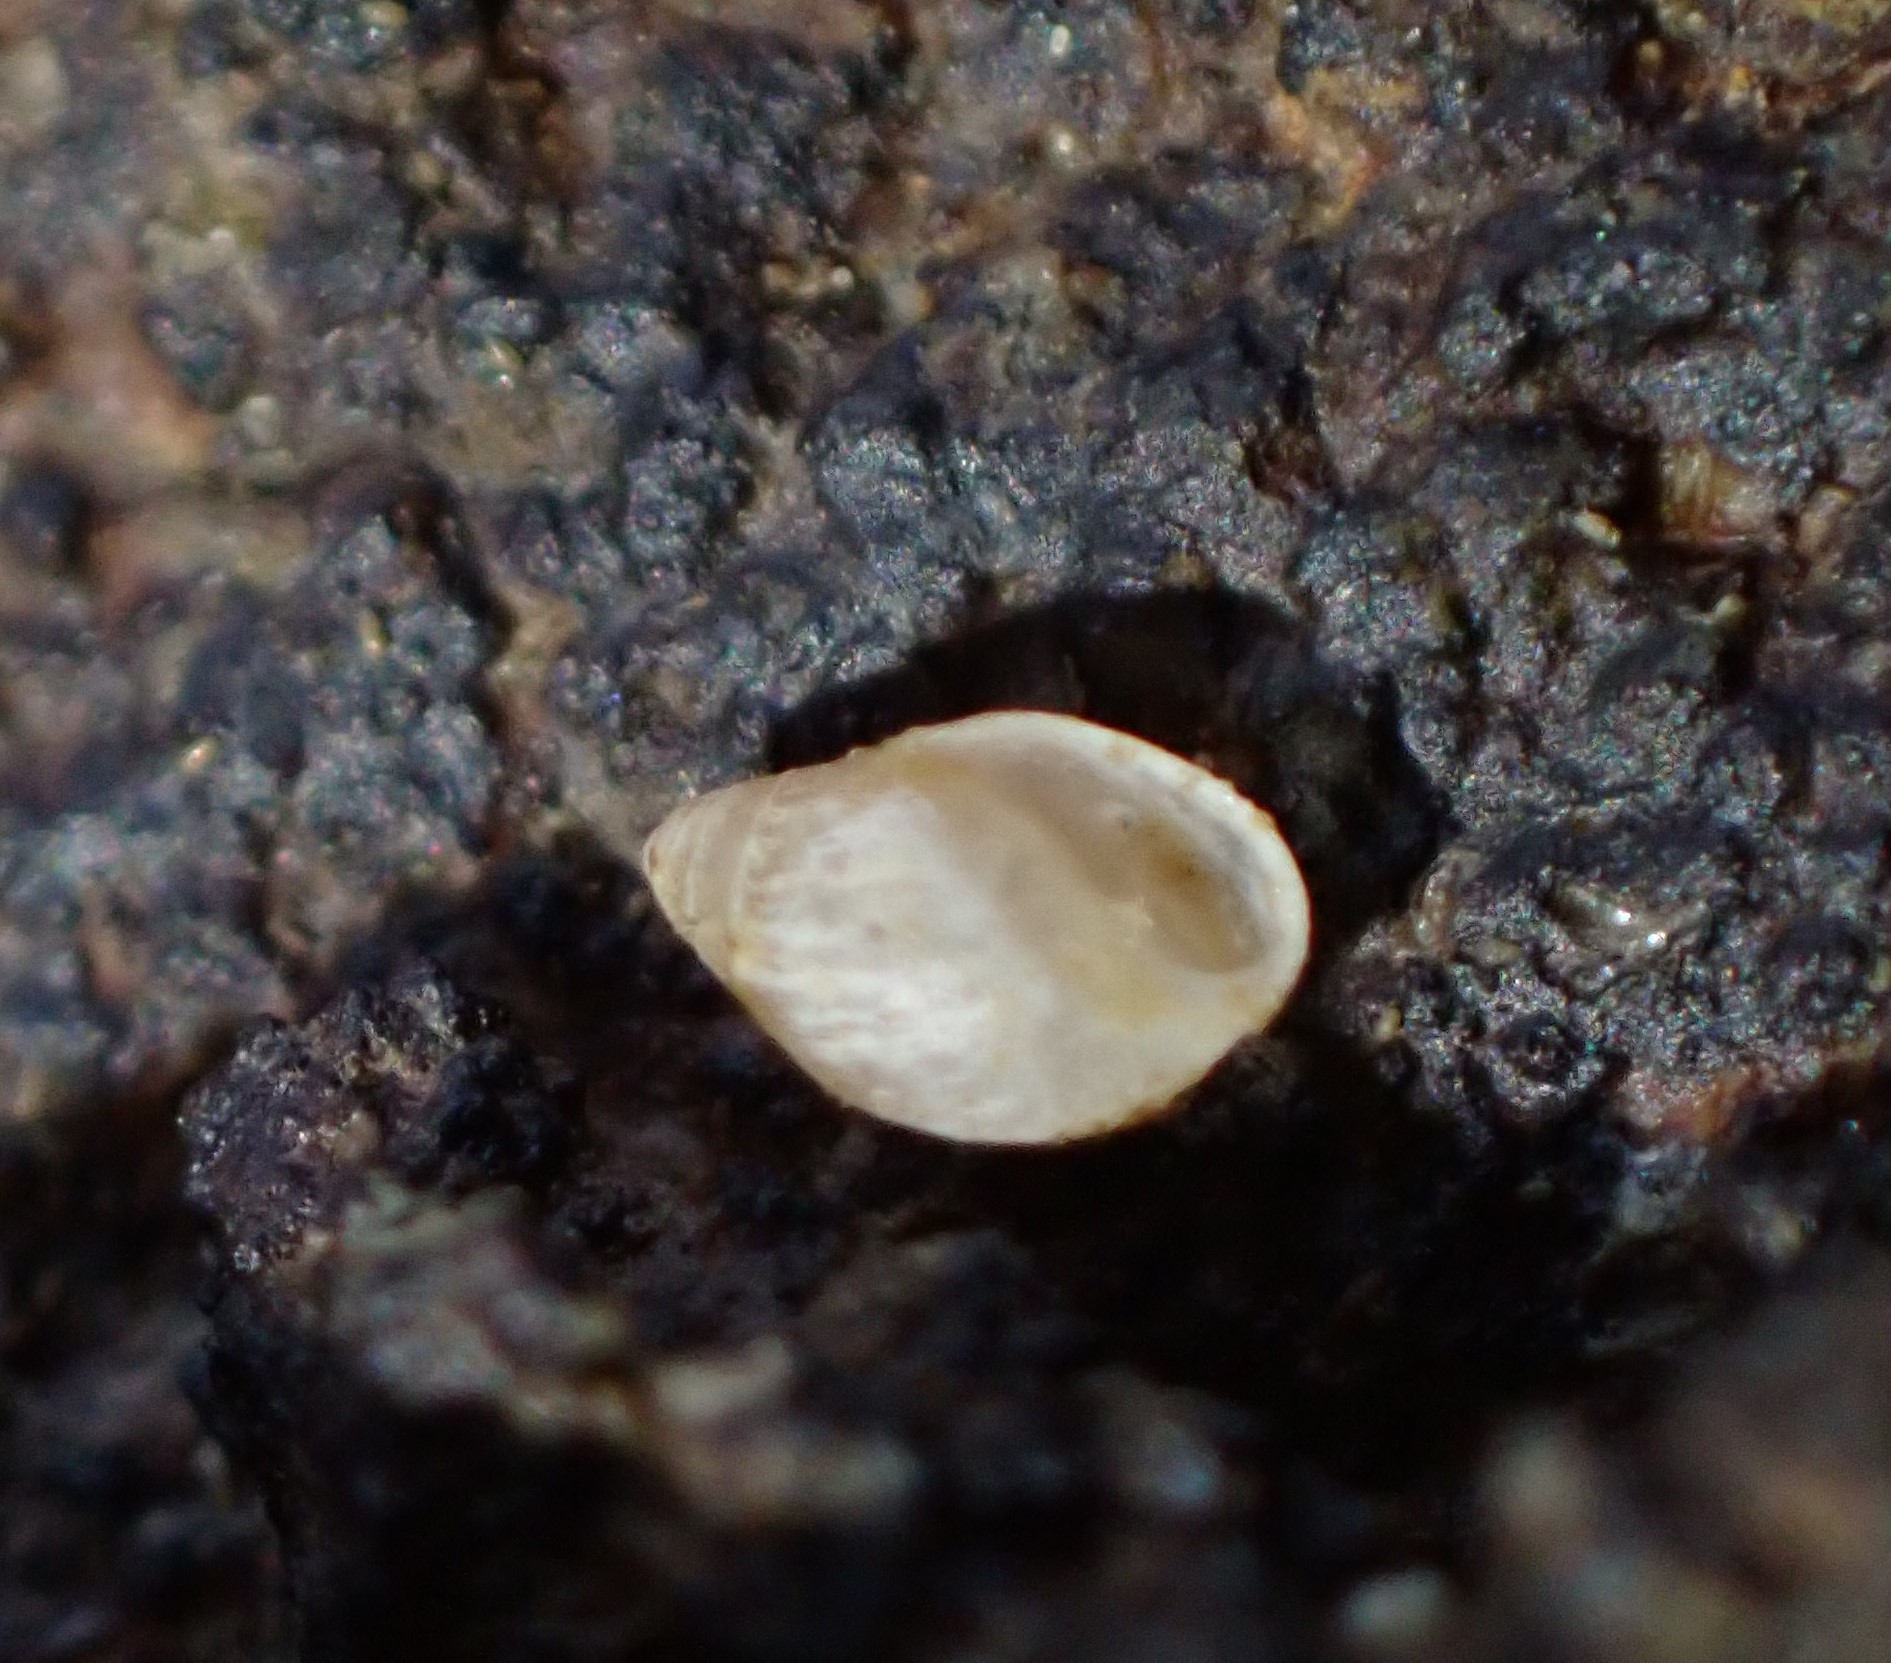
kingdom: Animalia
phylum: Mollusca
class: Gastropoda
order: Ellobiida
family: Ellobiidae
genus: Leuconopsis
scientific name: Leuconopsis obsoleta
